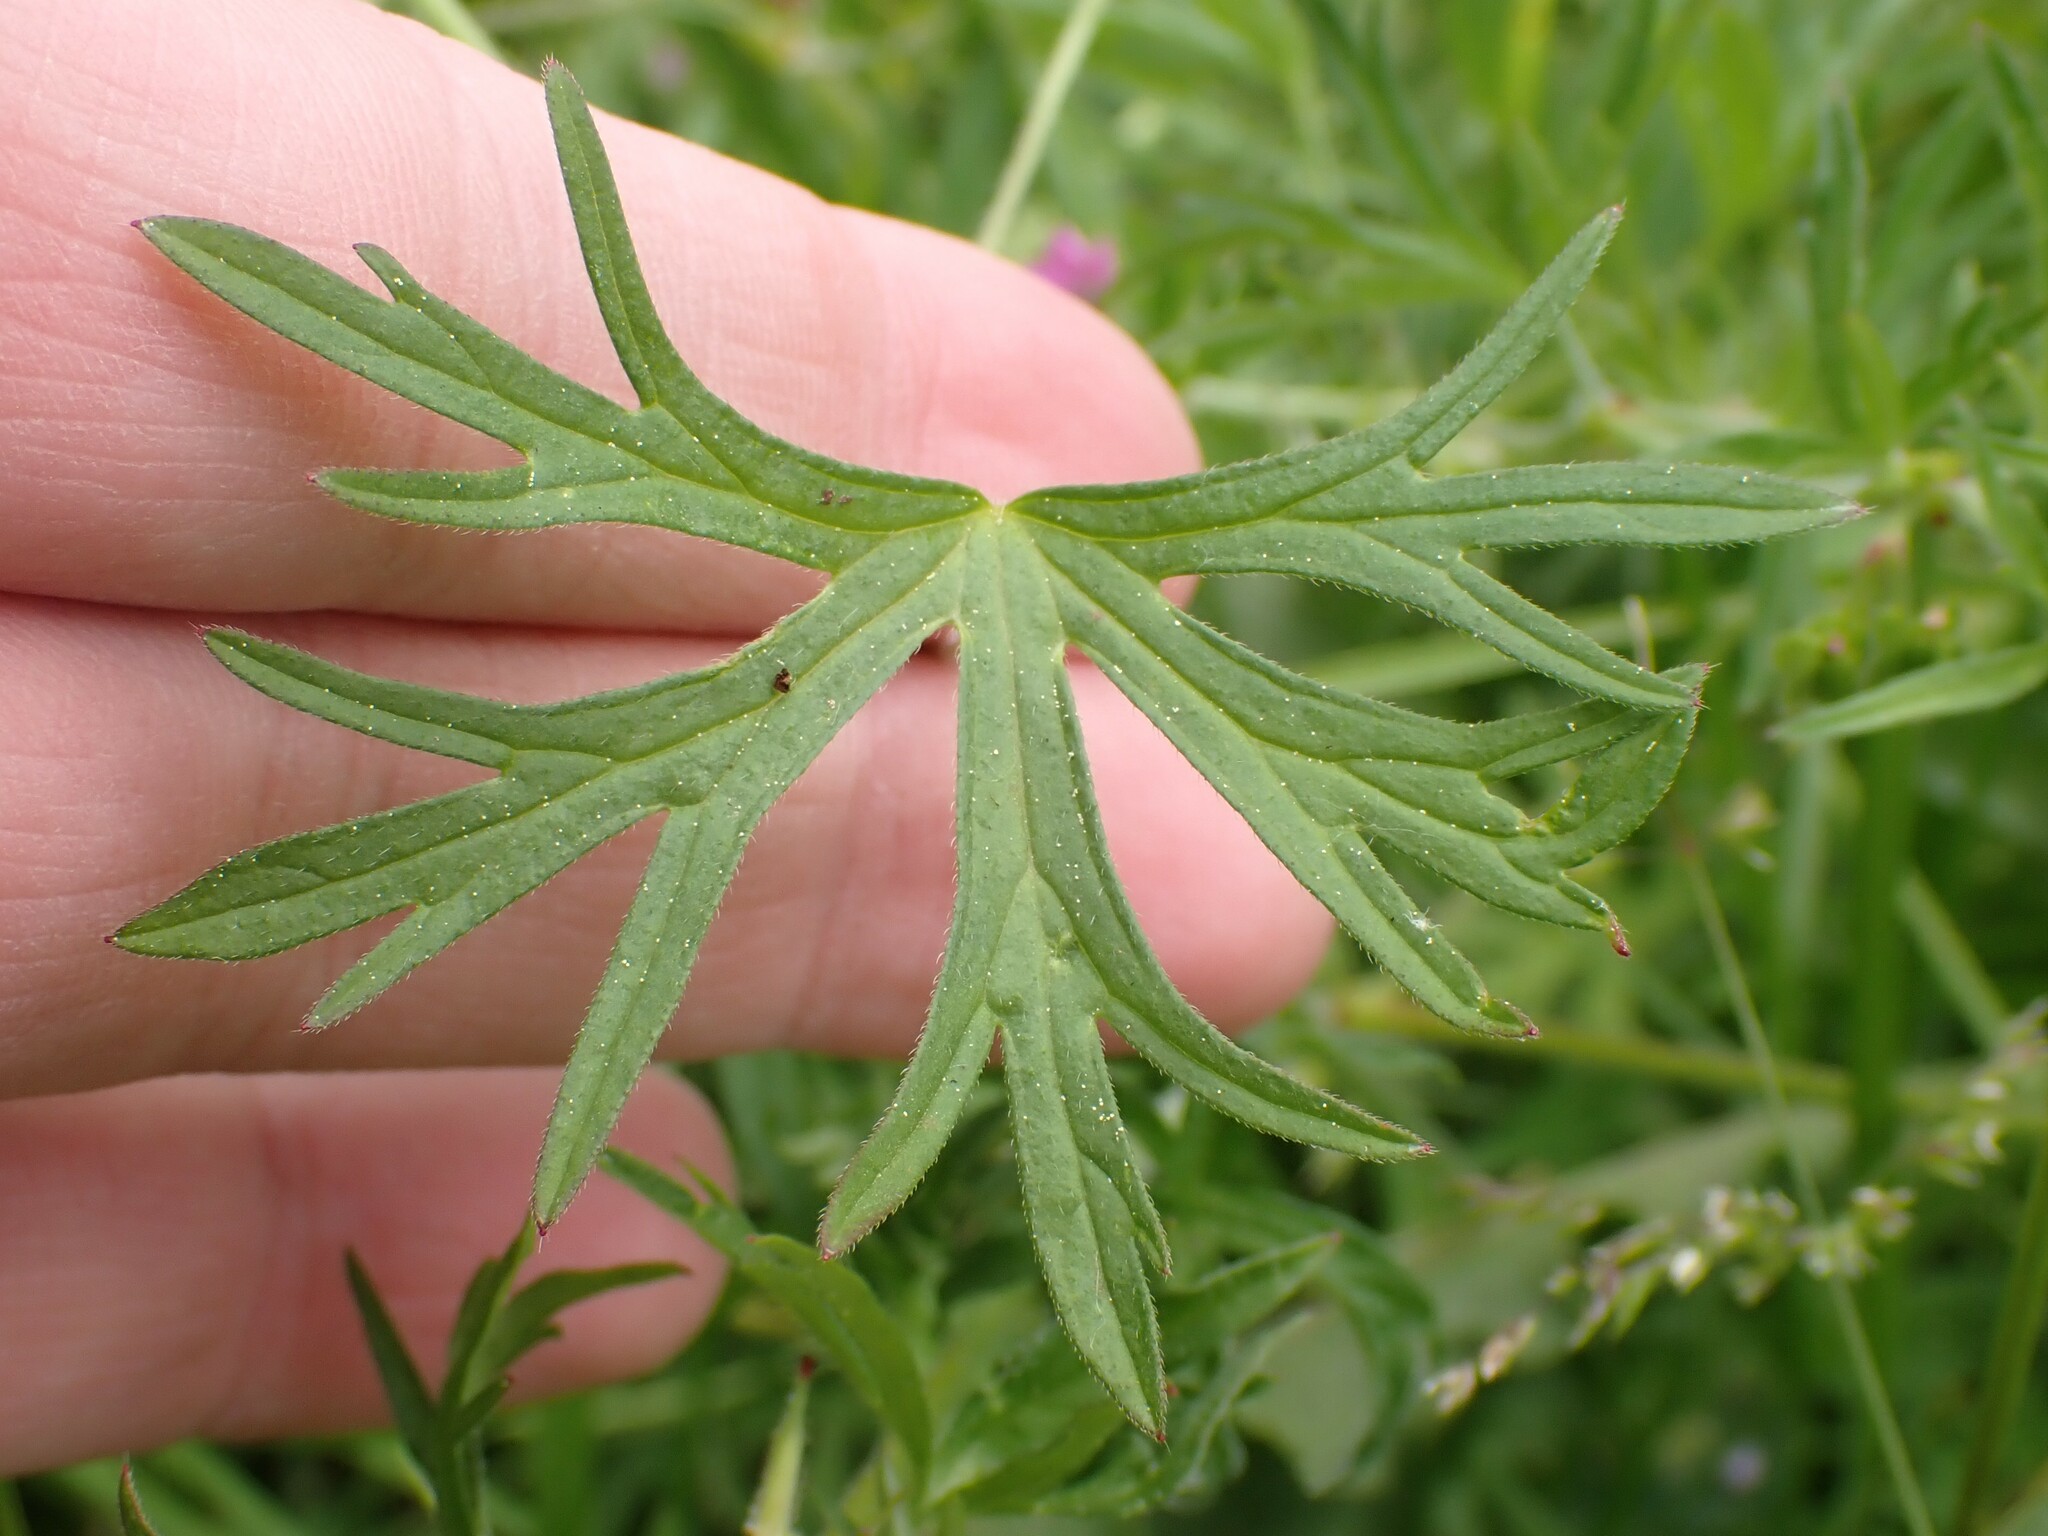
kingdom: Plantae
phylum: Tracheophyta
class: Magnoliopsida
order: Geraniales
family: Geraniaceae
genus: Geranium
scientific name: Geranium dissectum
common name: Cut-leaved crane's-bill
